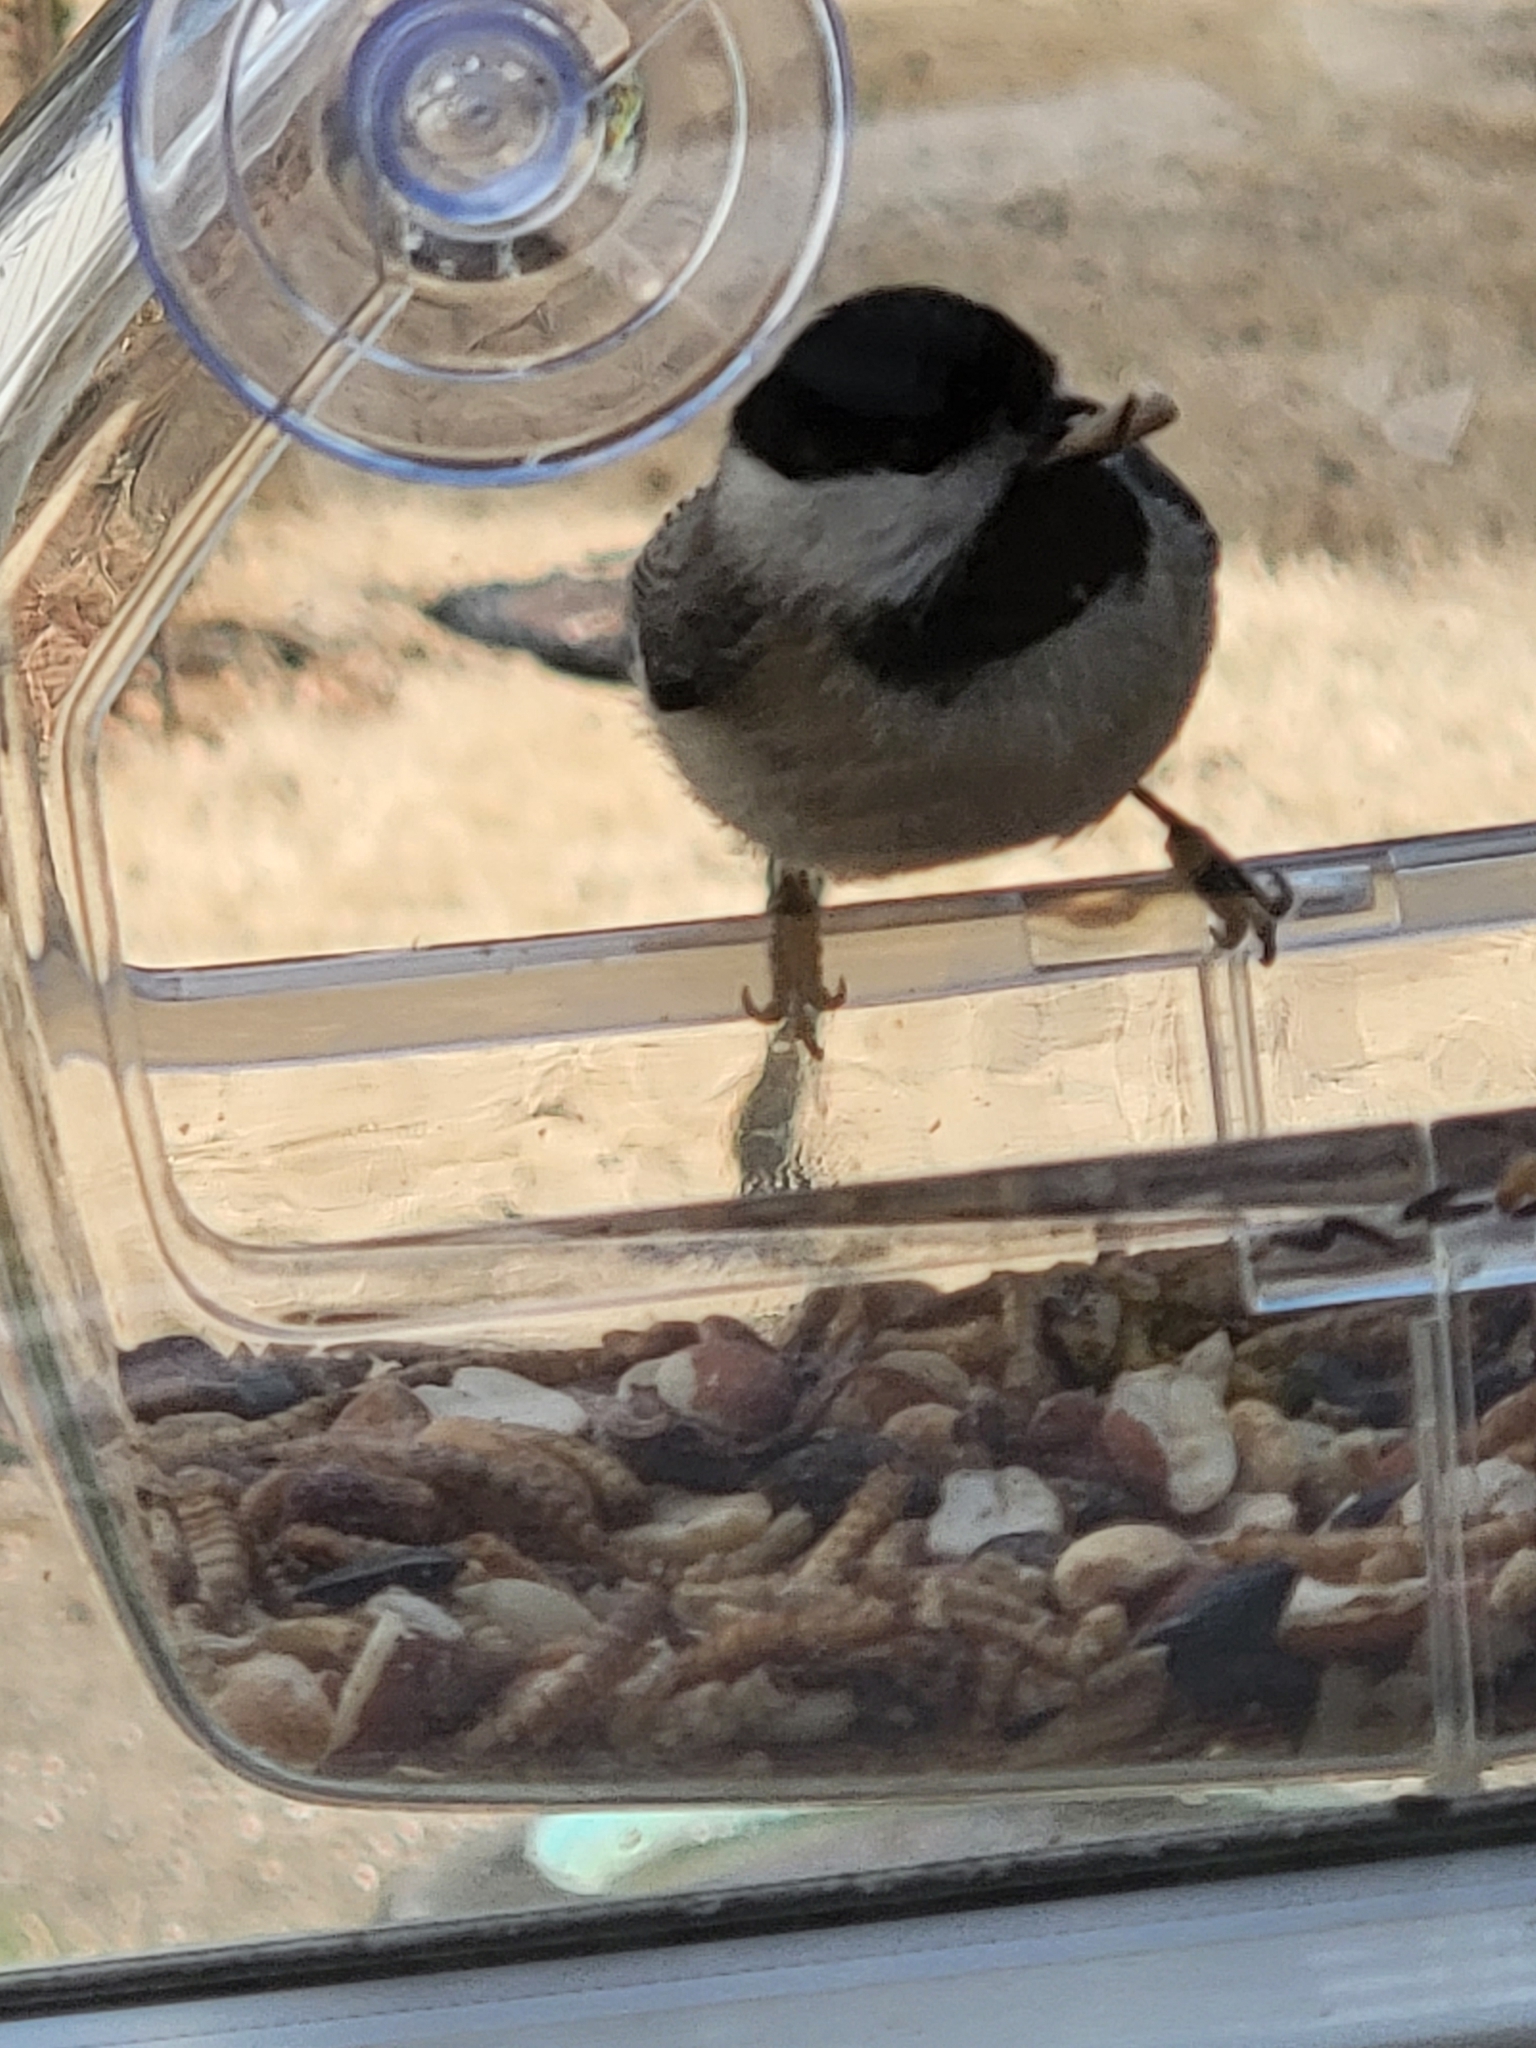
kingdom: Animalia
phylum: Chordata
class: Aves
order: Passeriformes
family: Paridae
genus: Poecile
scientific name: Poecile carolinensis
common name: Carolina chickadee
